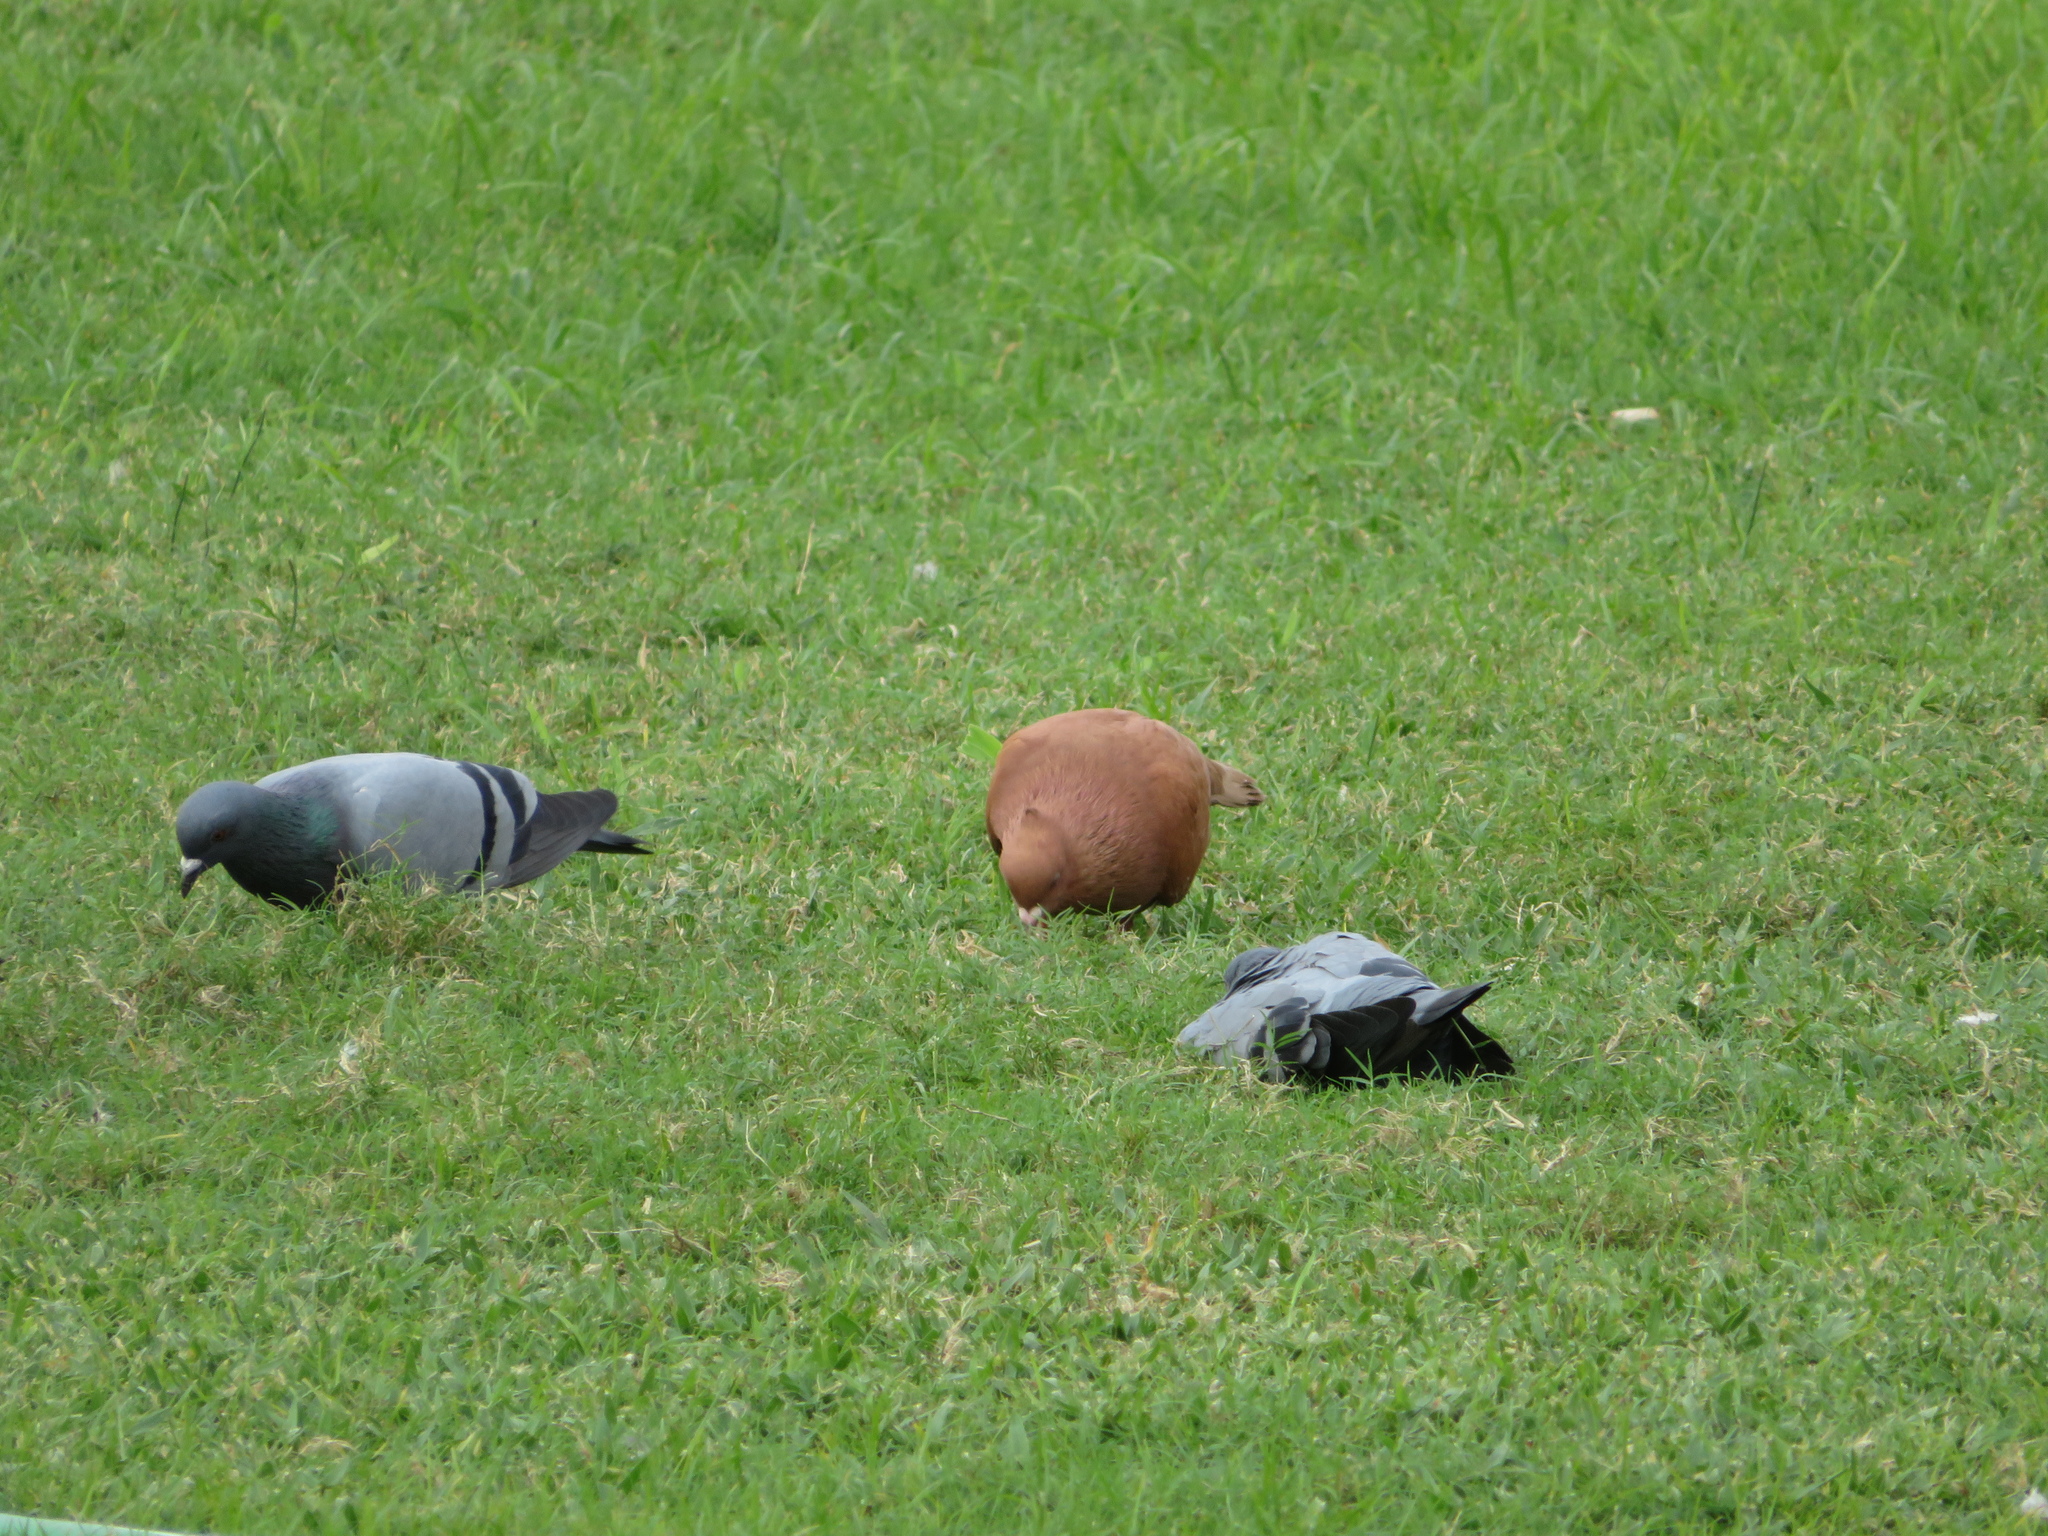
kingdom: Animalia
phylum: Chordata
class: Aves
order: Columbiformes
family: Columbidae
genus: Columba
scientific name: Columba livia
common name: Rock pigeon
